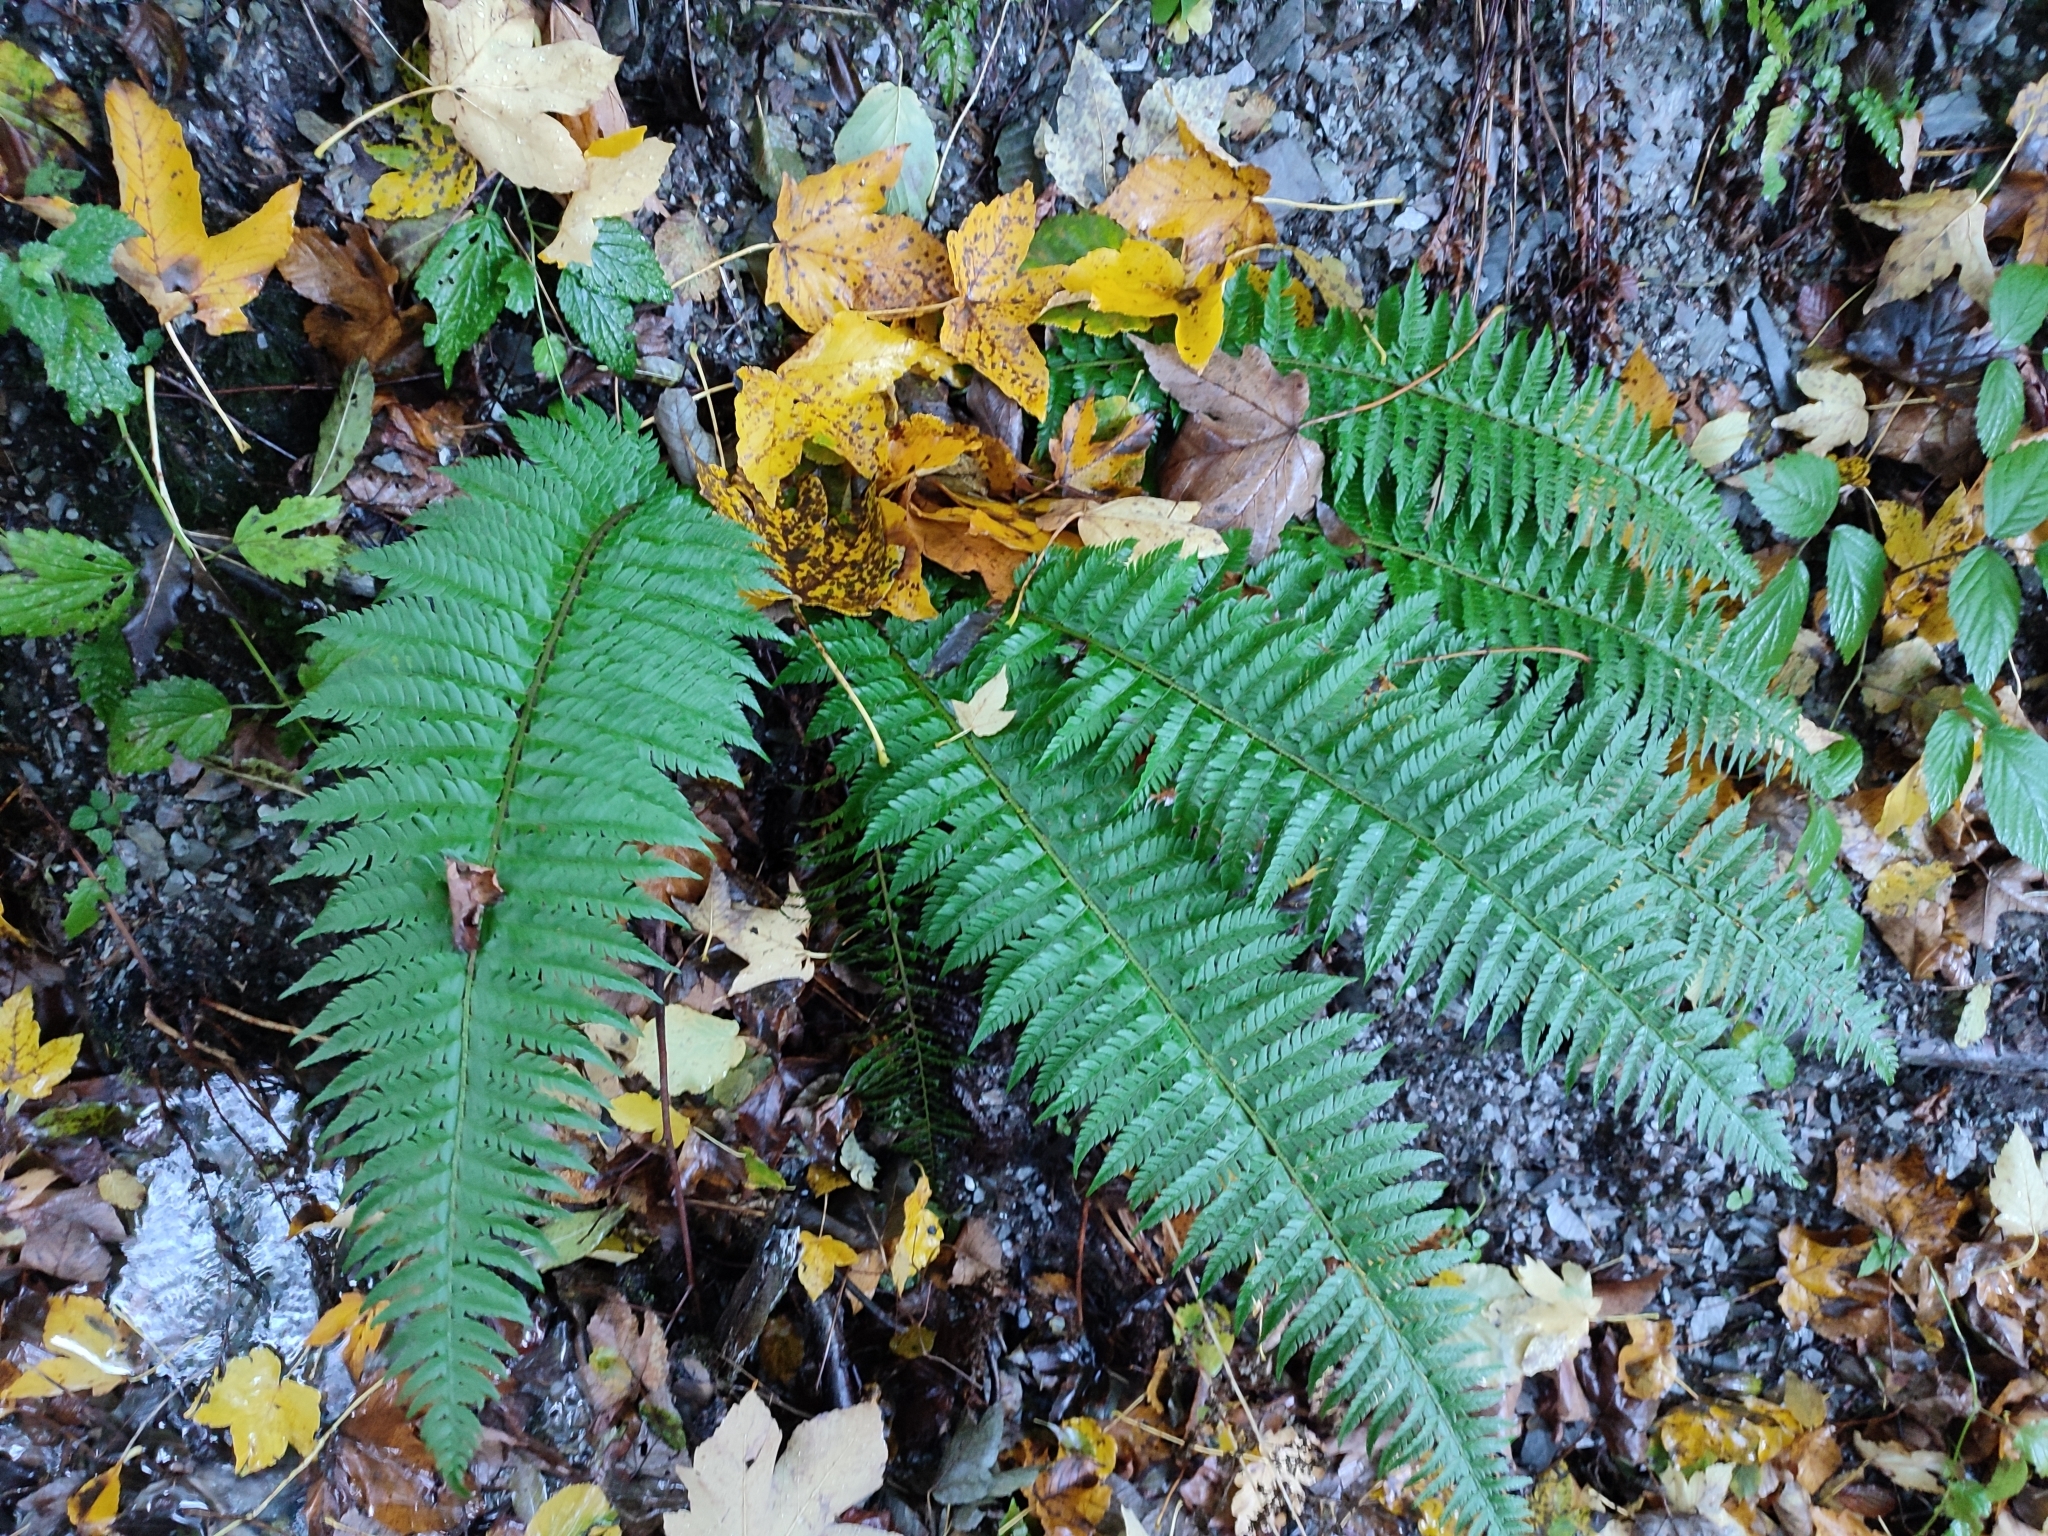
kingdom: Plantae
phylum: Tracheophyta
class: Polypodiopsida
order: Polypodiales
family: Dryopteridaceae
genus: Polystichum
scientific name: Polystichum aculeatum
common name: Hard shield-fern
